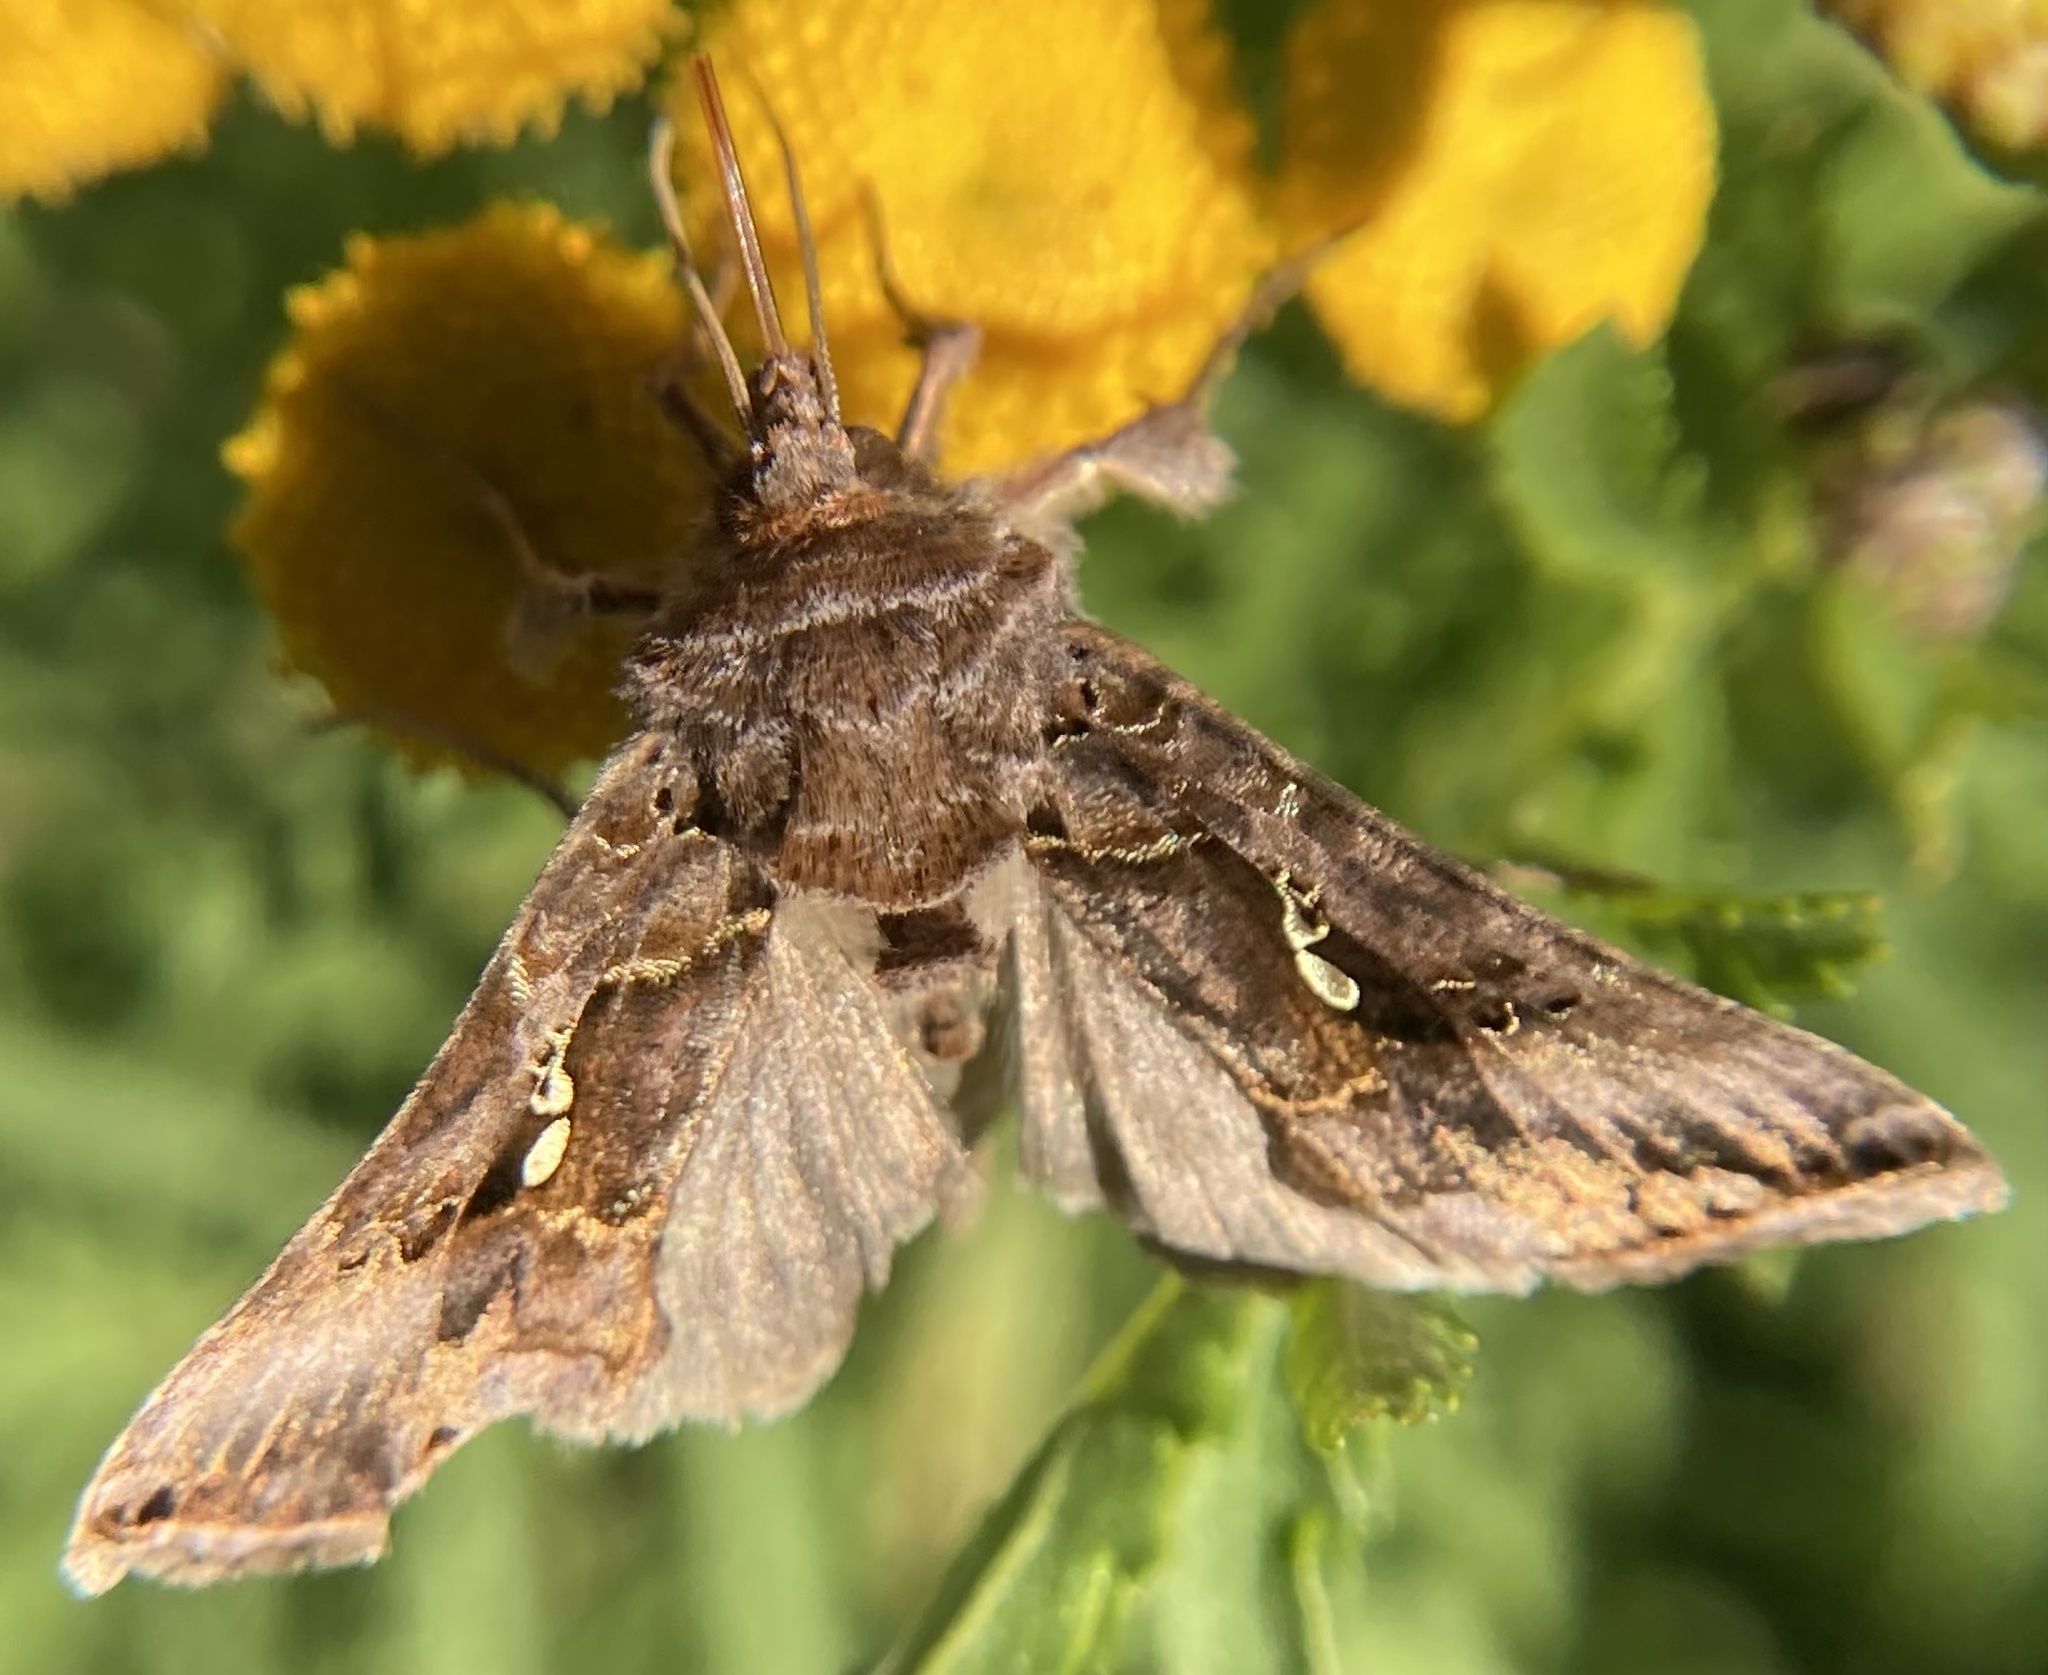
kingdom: Animalia
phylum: Arthropoda
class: Insecta
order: Lepidoptera
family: Noctuidae
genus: Autographa
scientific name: Autographa precationis
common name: Common looper moth
